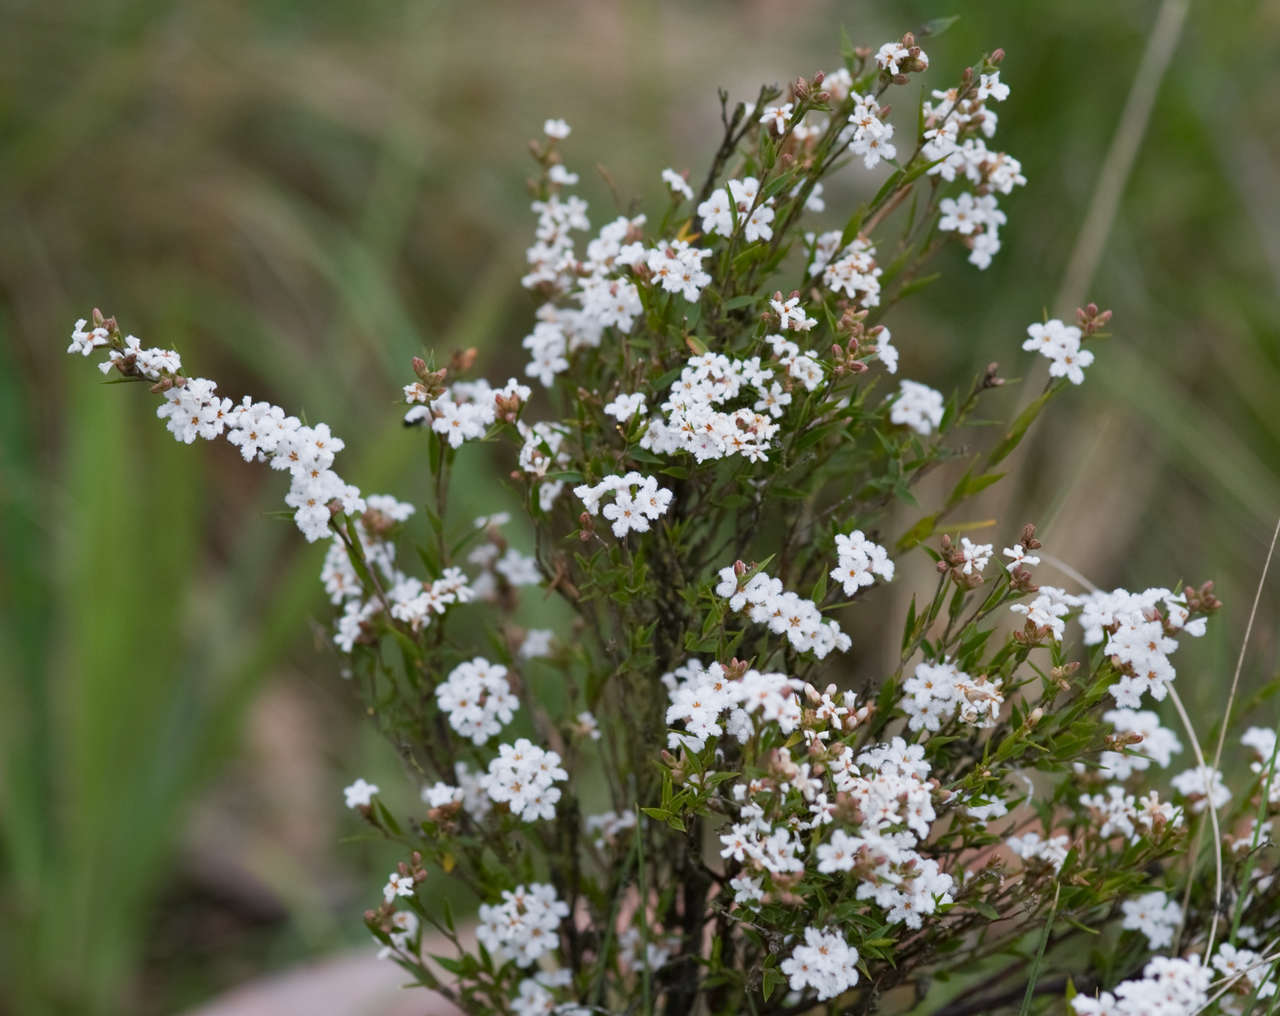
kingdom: Plantae
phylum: Tracheophyta
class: Magnoliopsida
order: Ericales
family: Ericaceae
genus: Leucopogon
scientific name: Leucopogon virgatus
